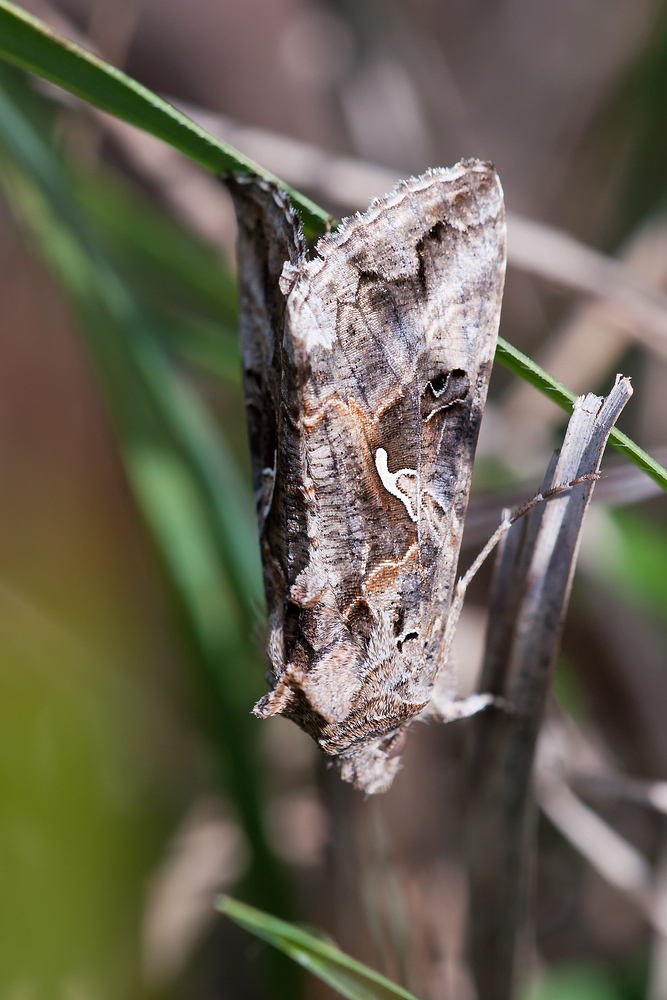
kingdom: Animalia
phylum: Arthropoda
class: Insecta
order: Lepidoptera
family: Noctuidae
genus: Autographa
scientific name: Autographa gamma
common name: Silver y
